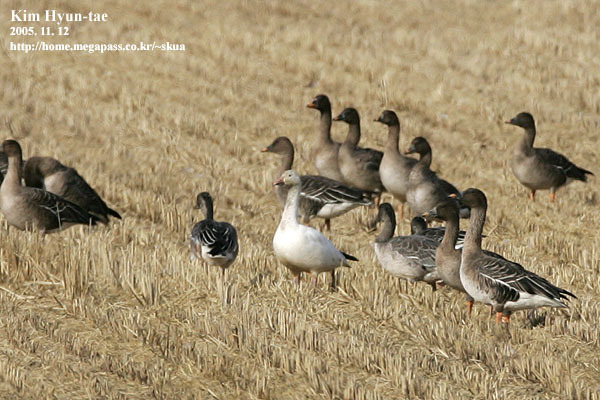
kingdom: Animalia
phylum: Chordata
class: Aves
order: Anseriformes
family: Anatidae
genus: Anser
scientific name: Anser caerulescens
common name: Snow goose
